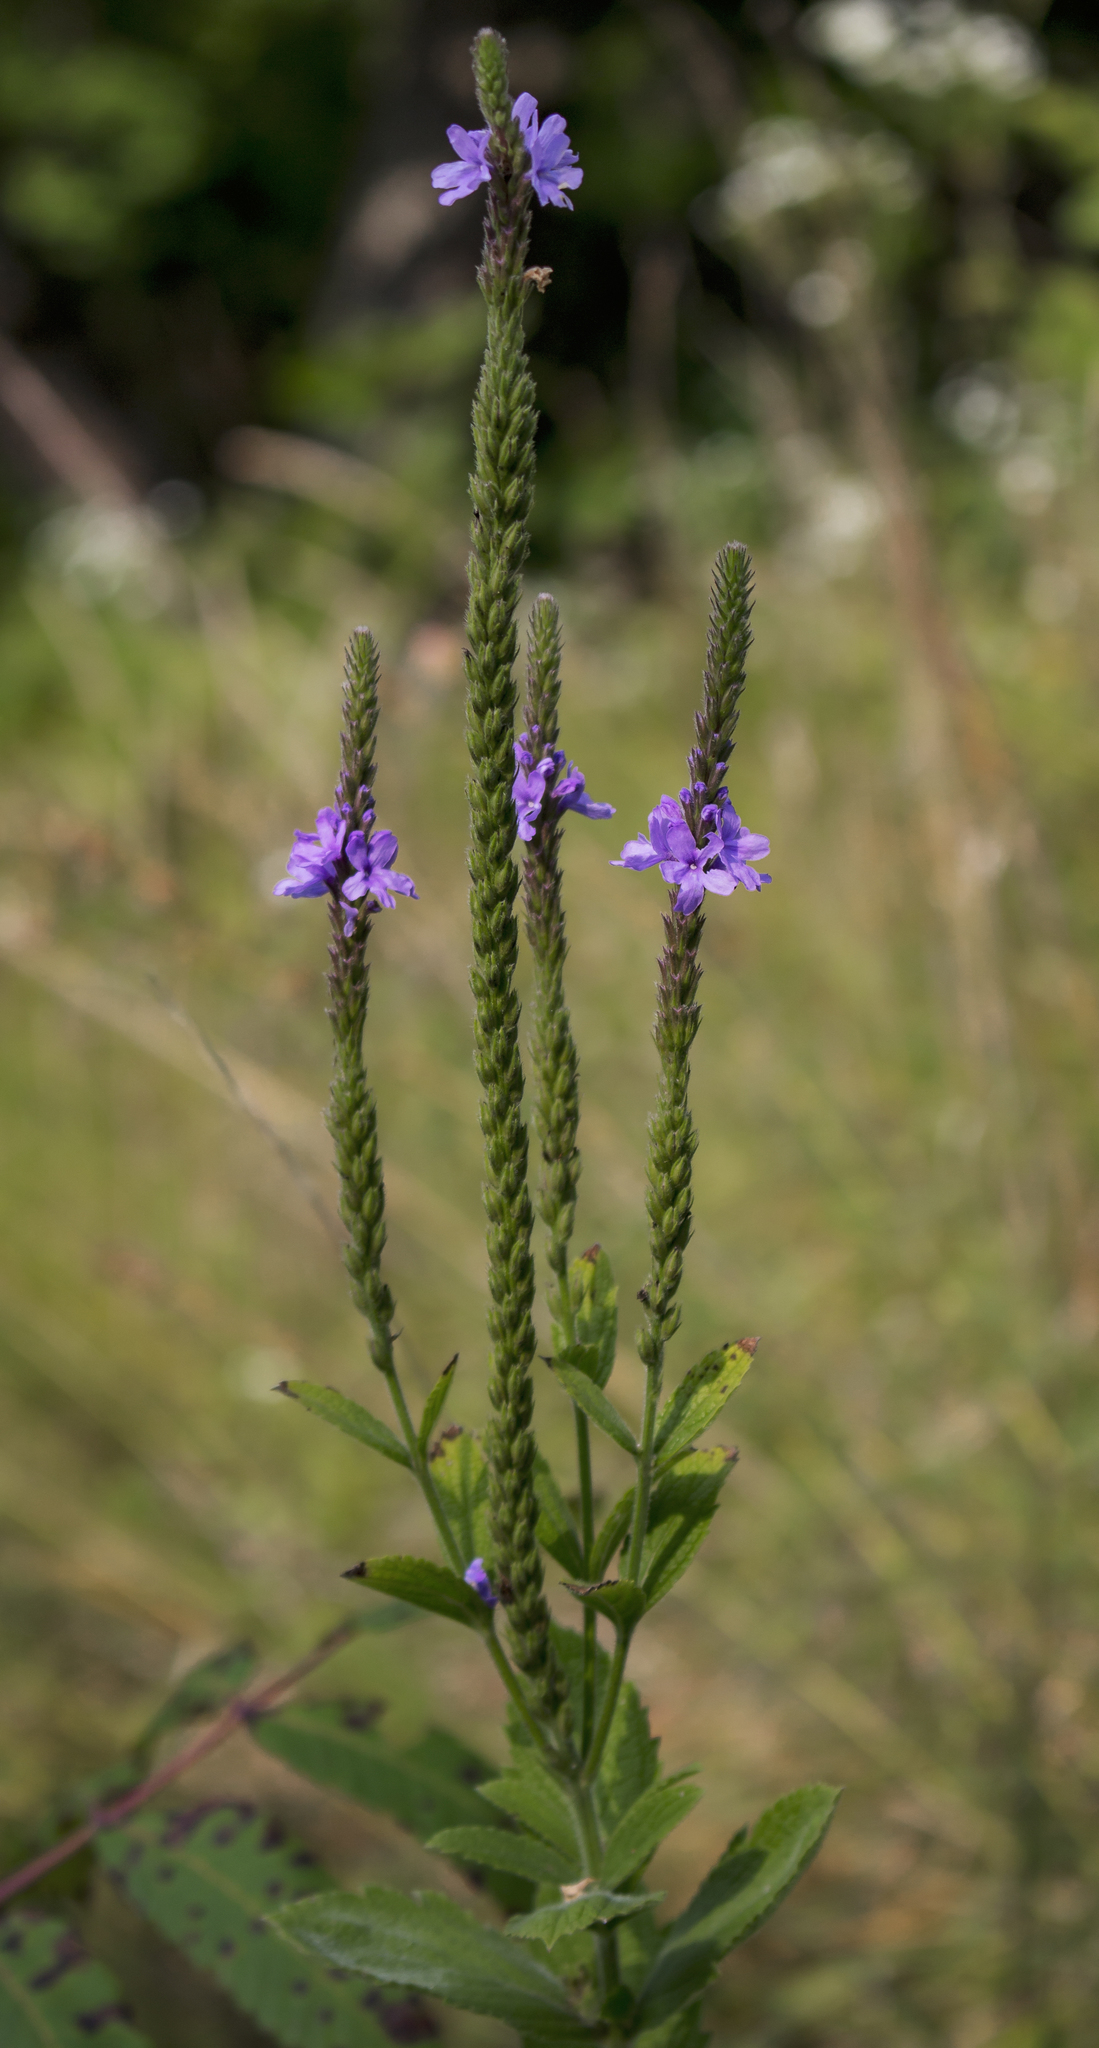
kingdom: Plantae
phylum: Tracheophyta
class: Magnoliopsida
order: Lamiales
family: Verbenaceae
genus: Verbena
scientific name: Verbena stricta
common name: Hoary vervain
